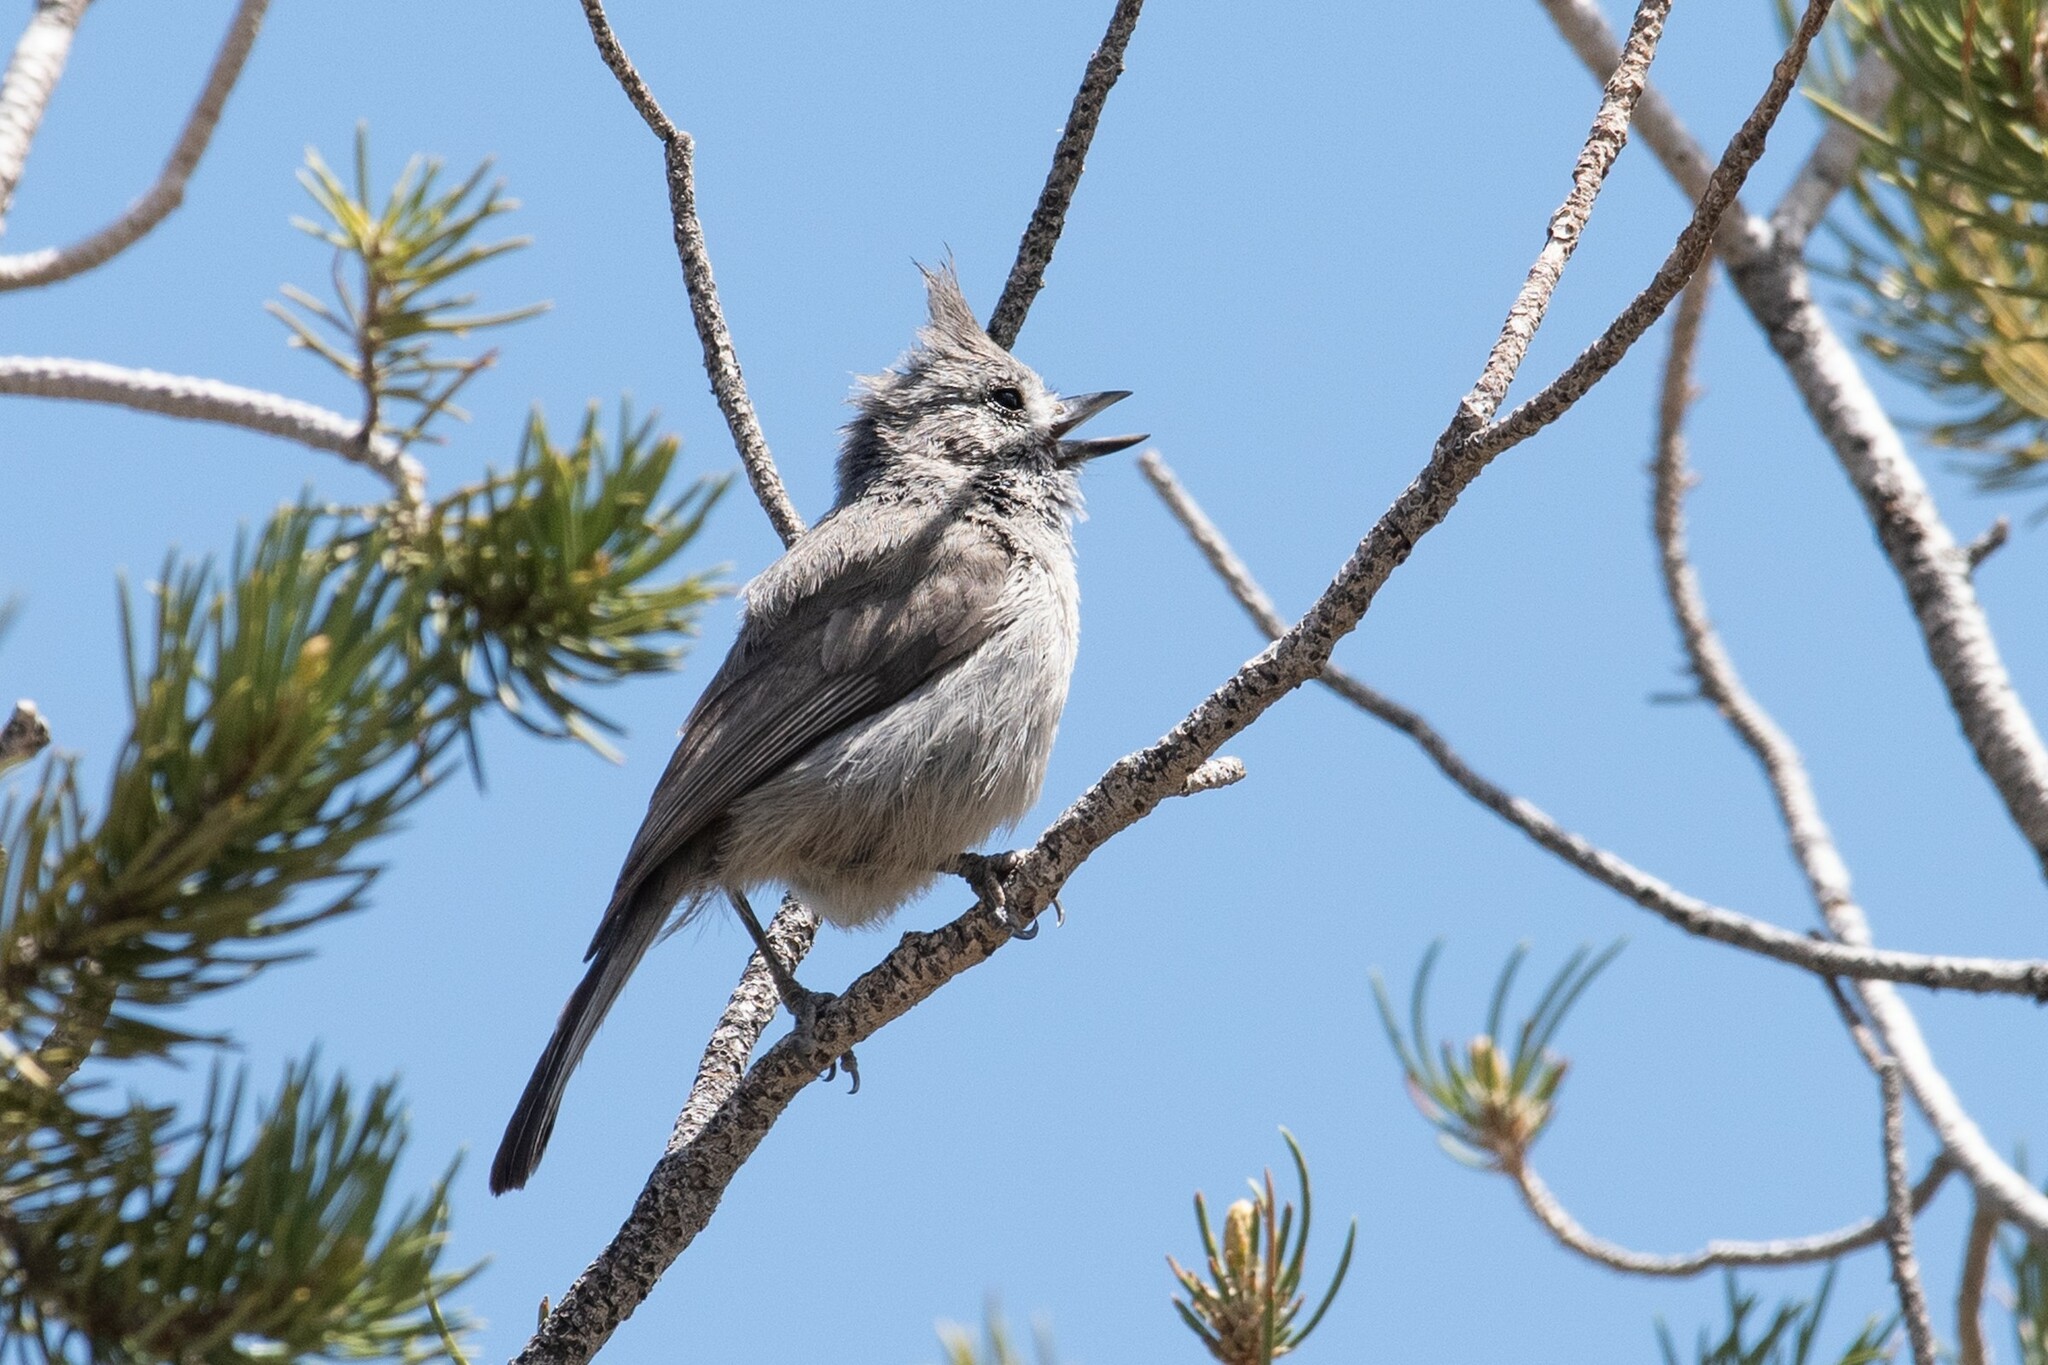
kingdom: Animalia
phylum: Chordata
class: Aves
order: Passeriformes
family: Paridae
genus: Baeolophus
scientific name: Baeolophus ridgwayi
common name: Juniper titmouse
